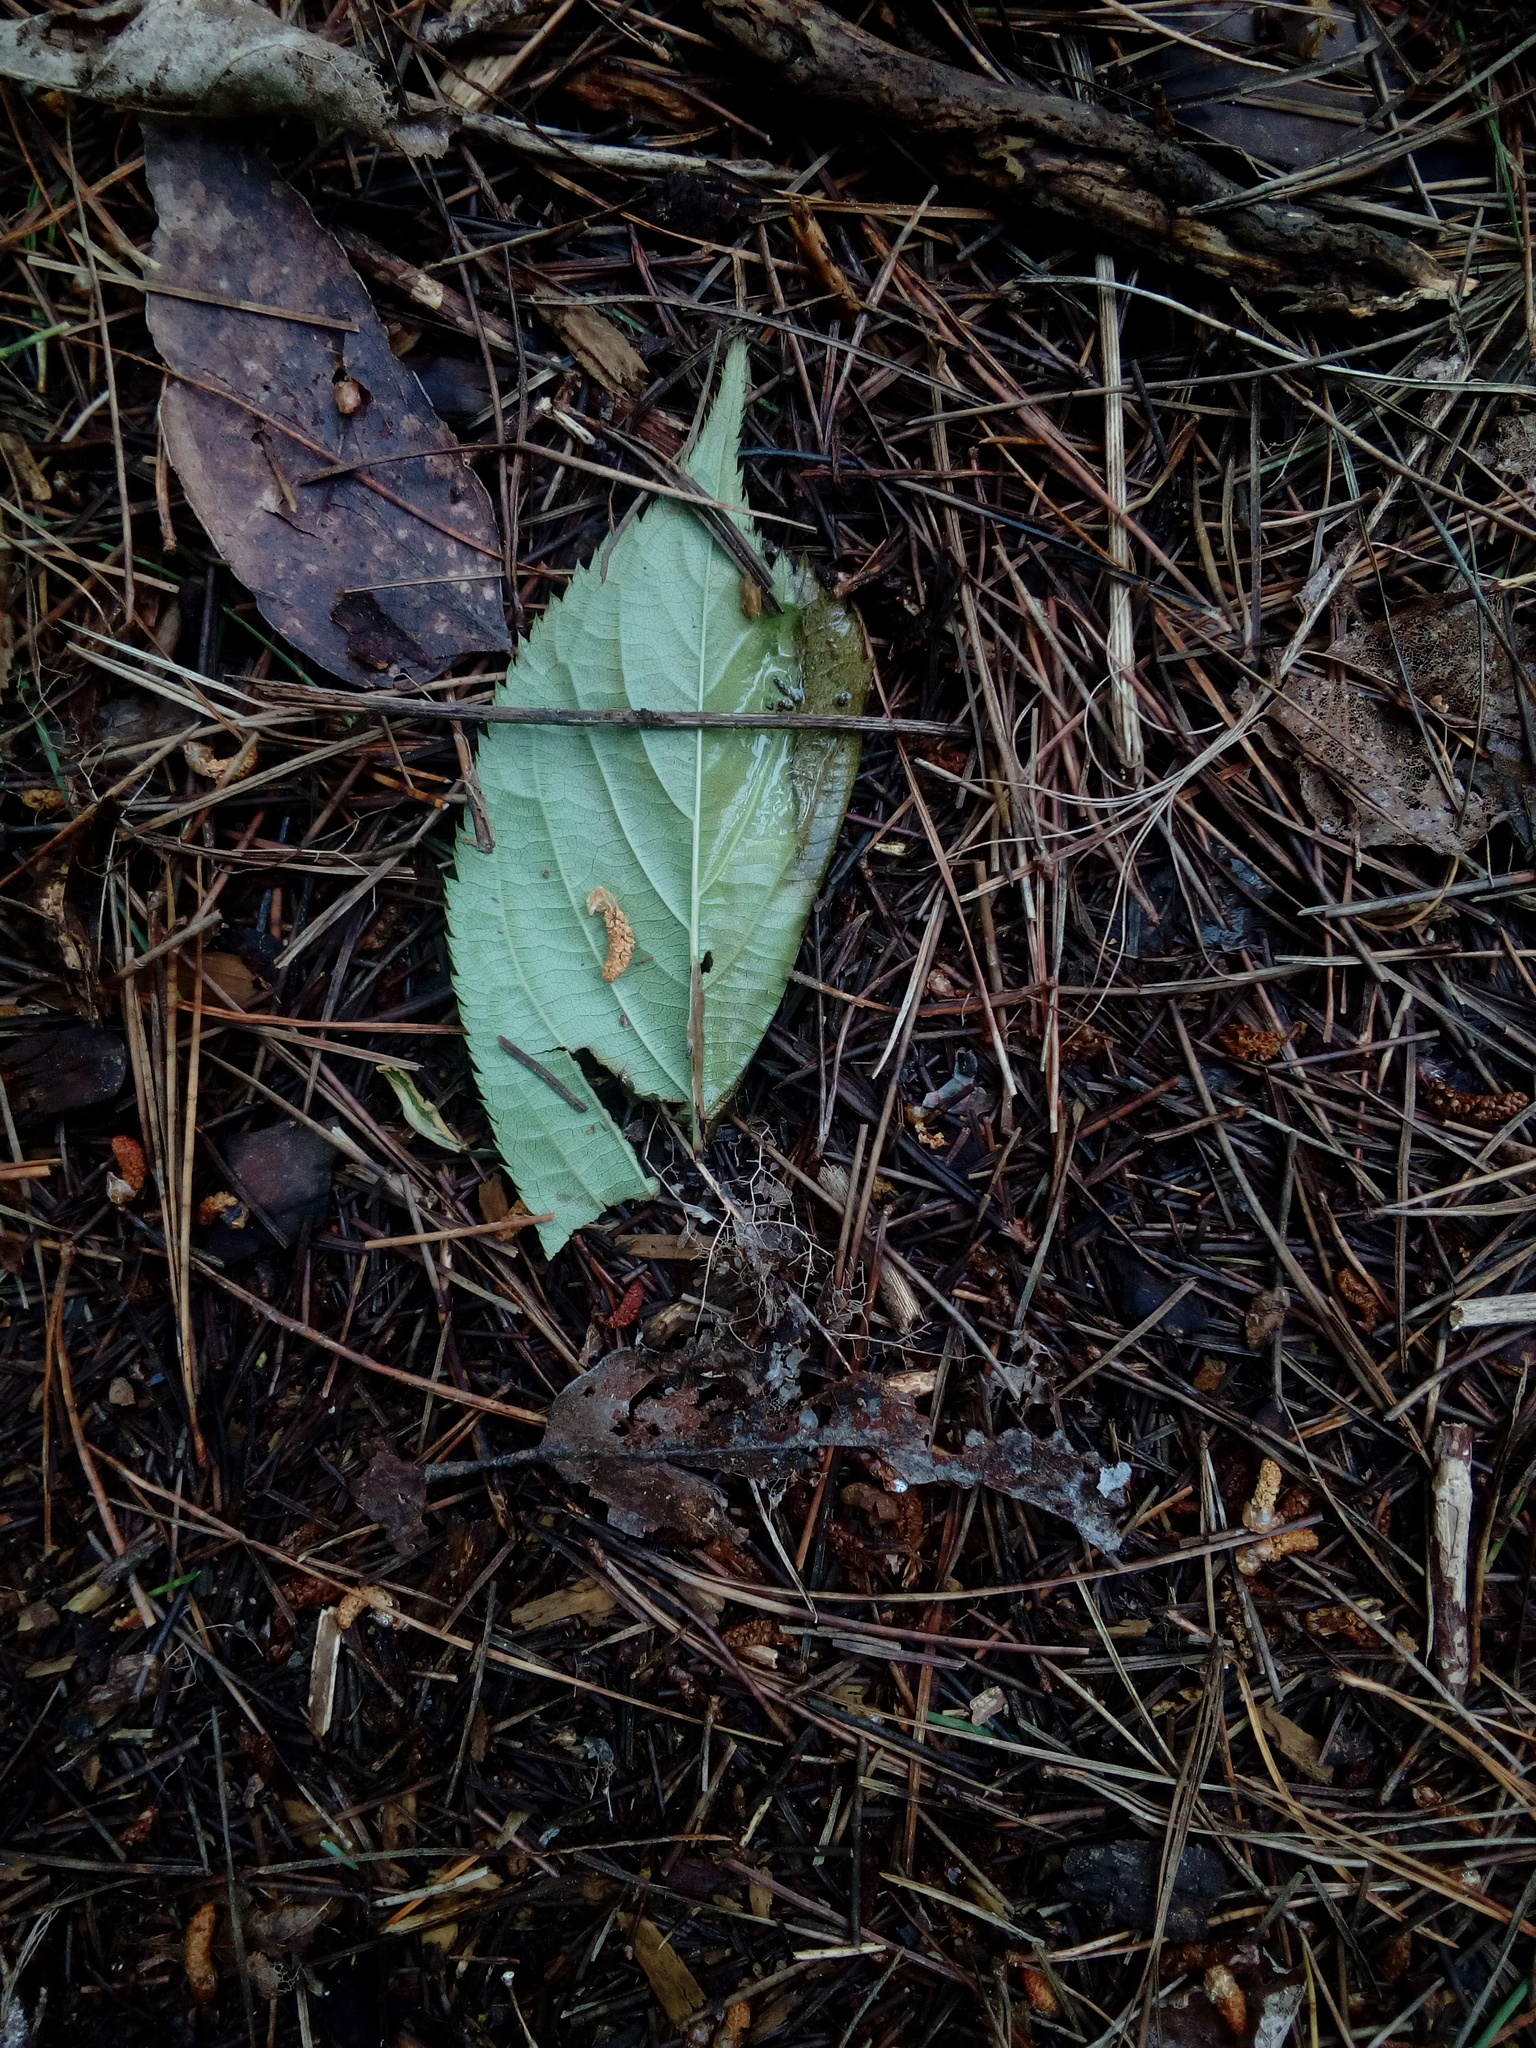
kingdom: Plantae
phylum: Tracheophyta
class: Magnoliopsida
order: Rosales
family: Rosaceae
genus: Prunus
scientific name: Prunus serrulata
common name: Japanese cherry
